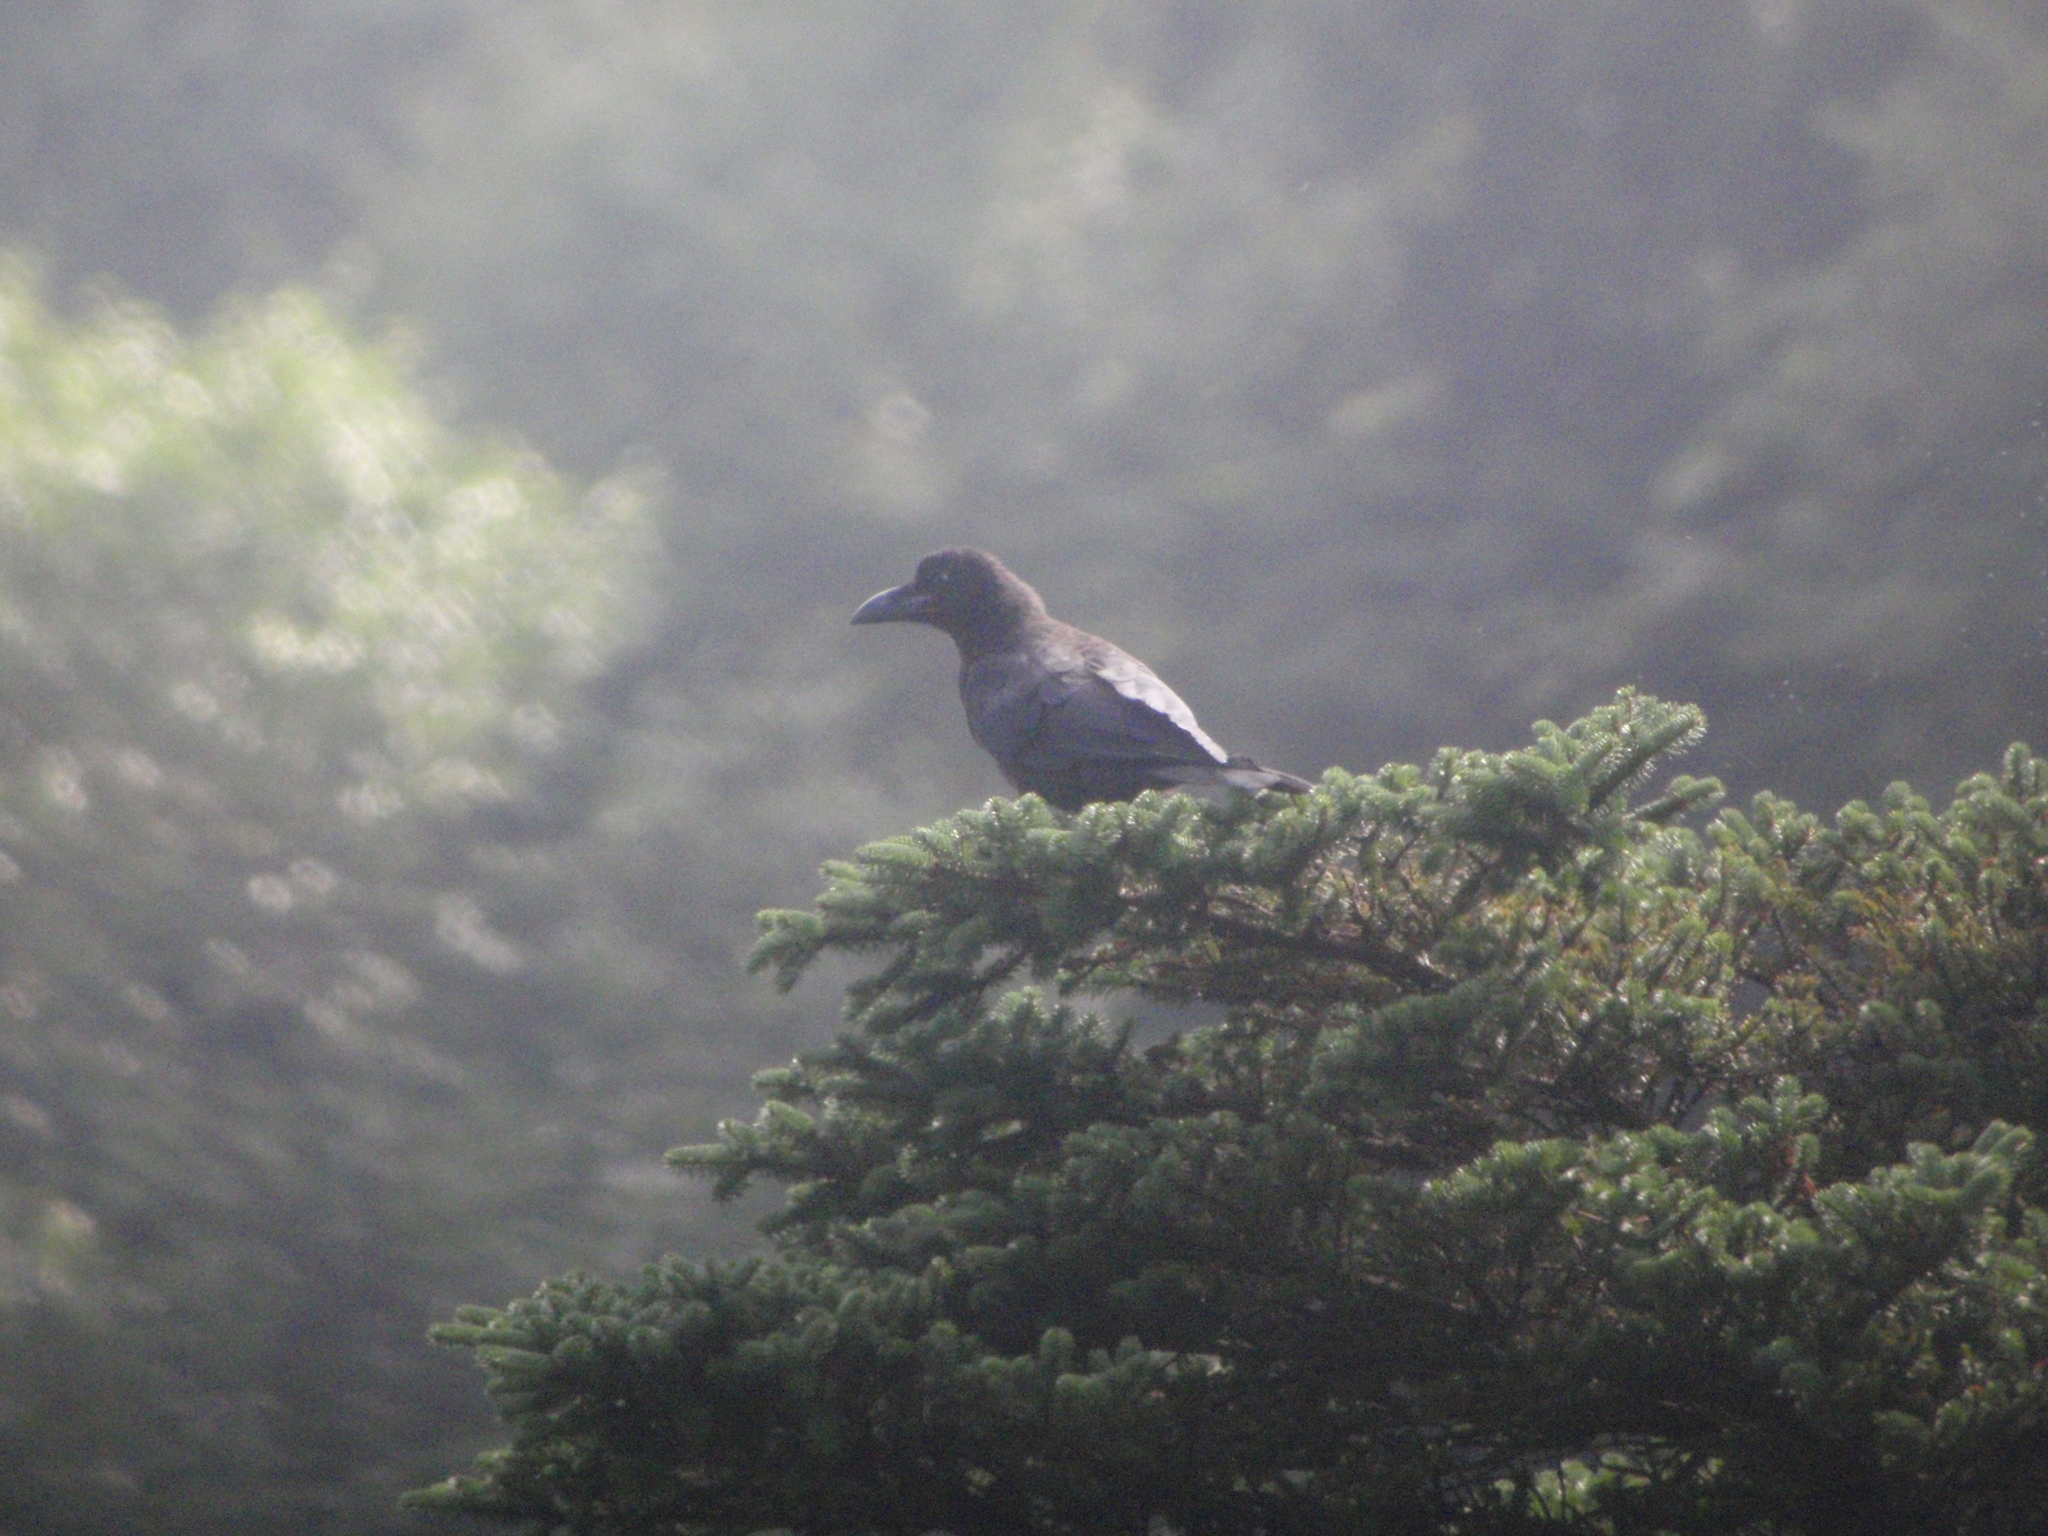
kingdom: Animalia
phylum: Chordata
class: Aves
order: Passeriformes
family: Corvidae
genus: Corvus
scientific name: Corvus macrorhynchos
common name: Large-billed crow
